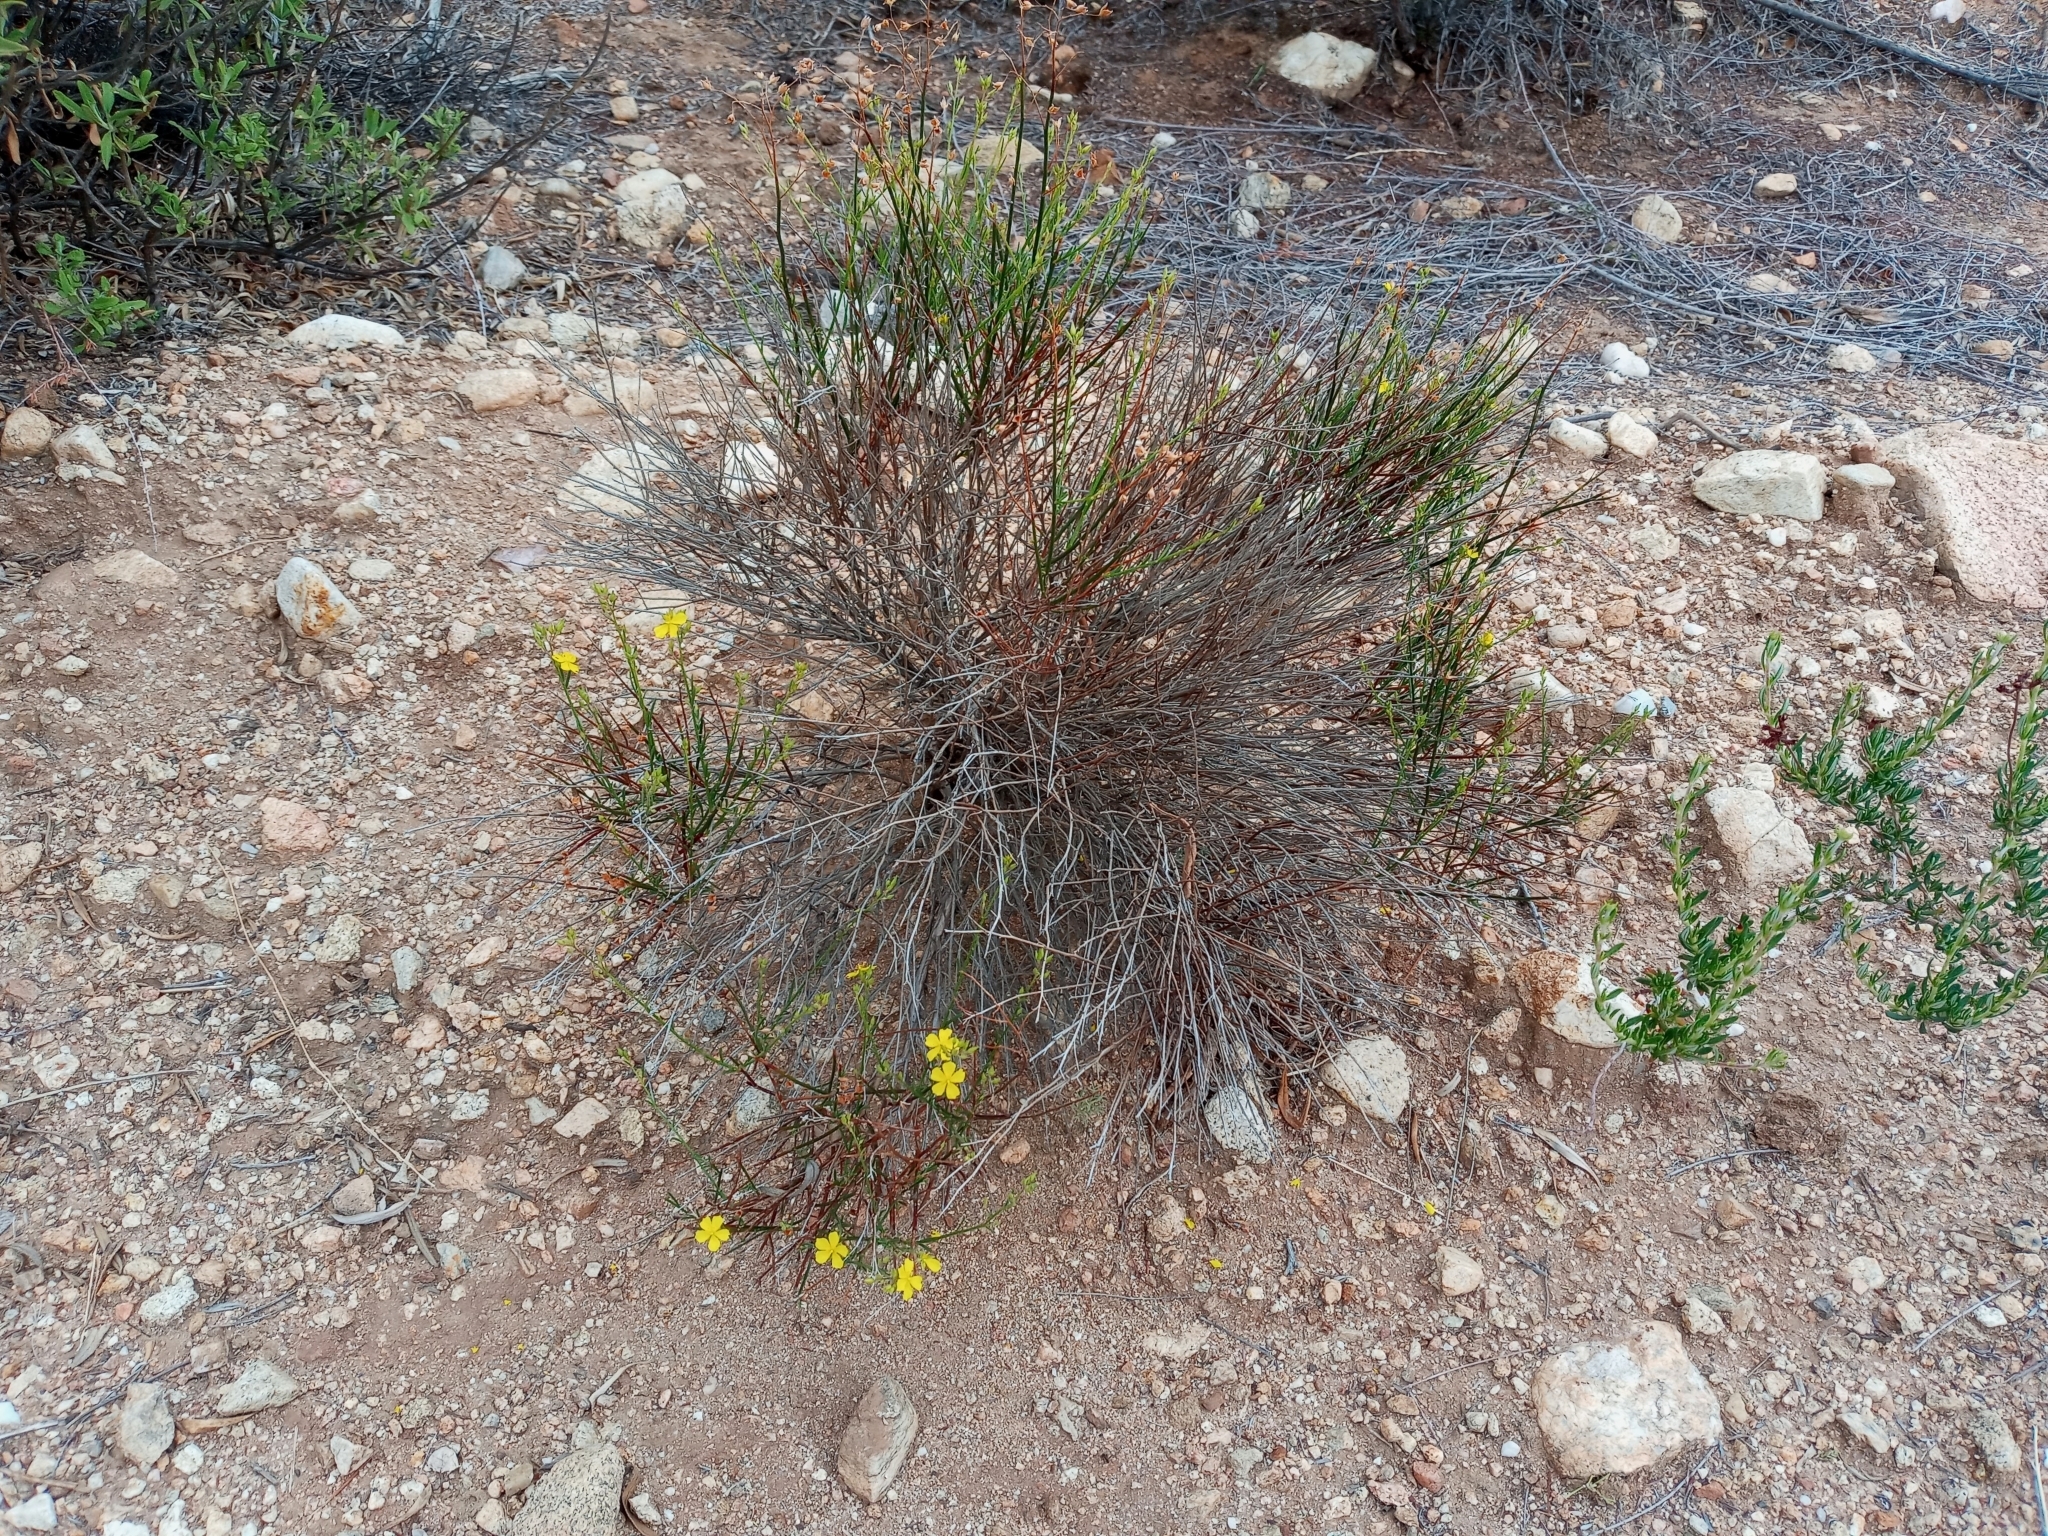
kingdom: Plantae
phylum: Tracheophyta
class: Magnoliopsida
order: Malvales
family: Cistaceae
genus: Crocanthemum
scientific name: Crocanthemum scoparium
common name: Broom-rose
